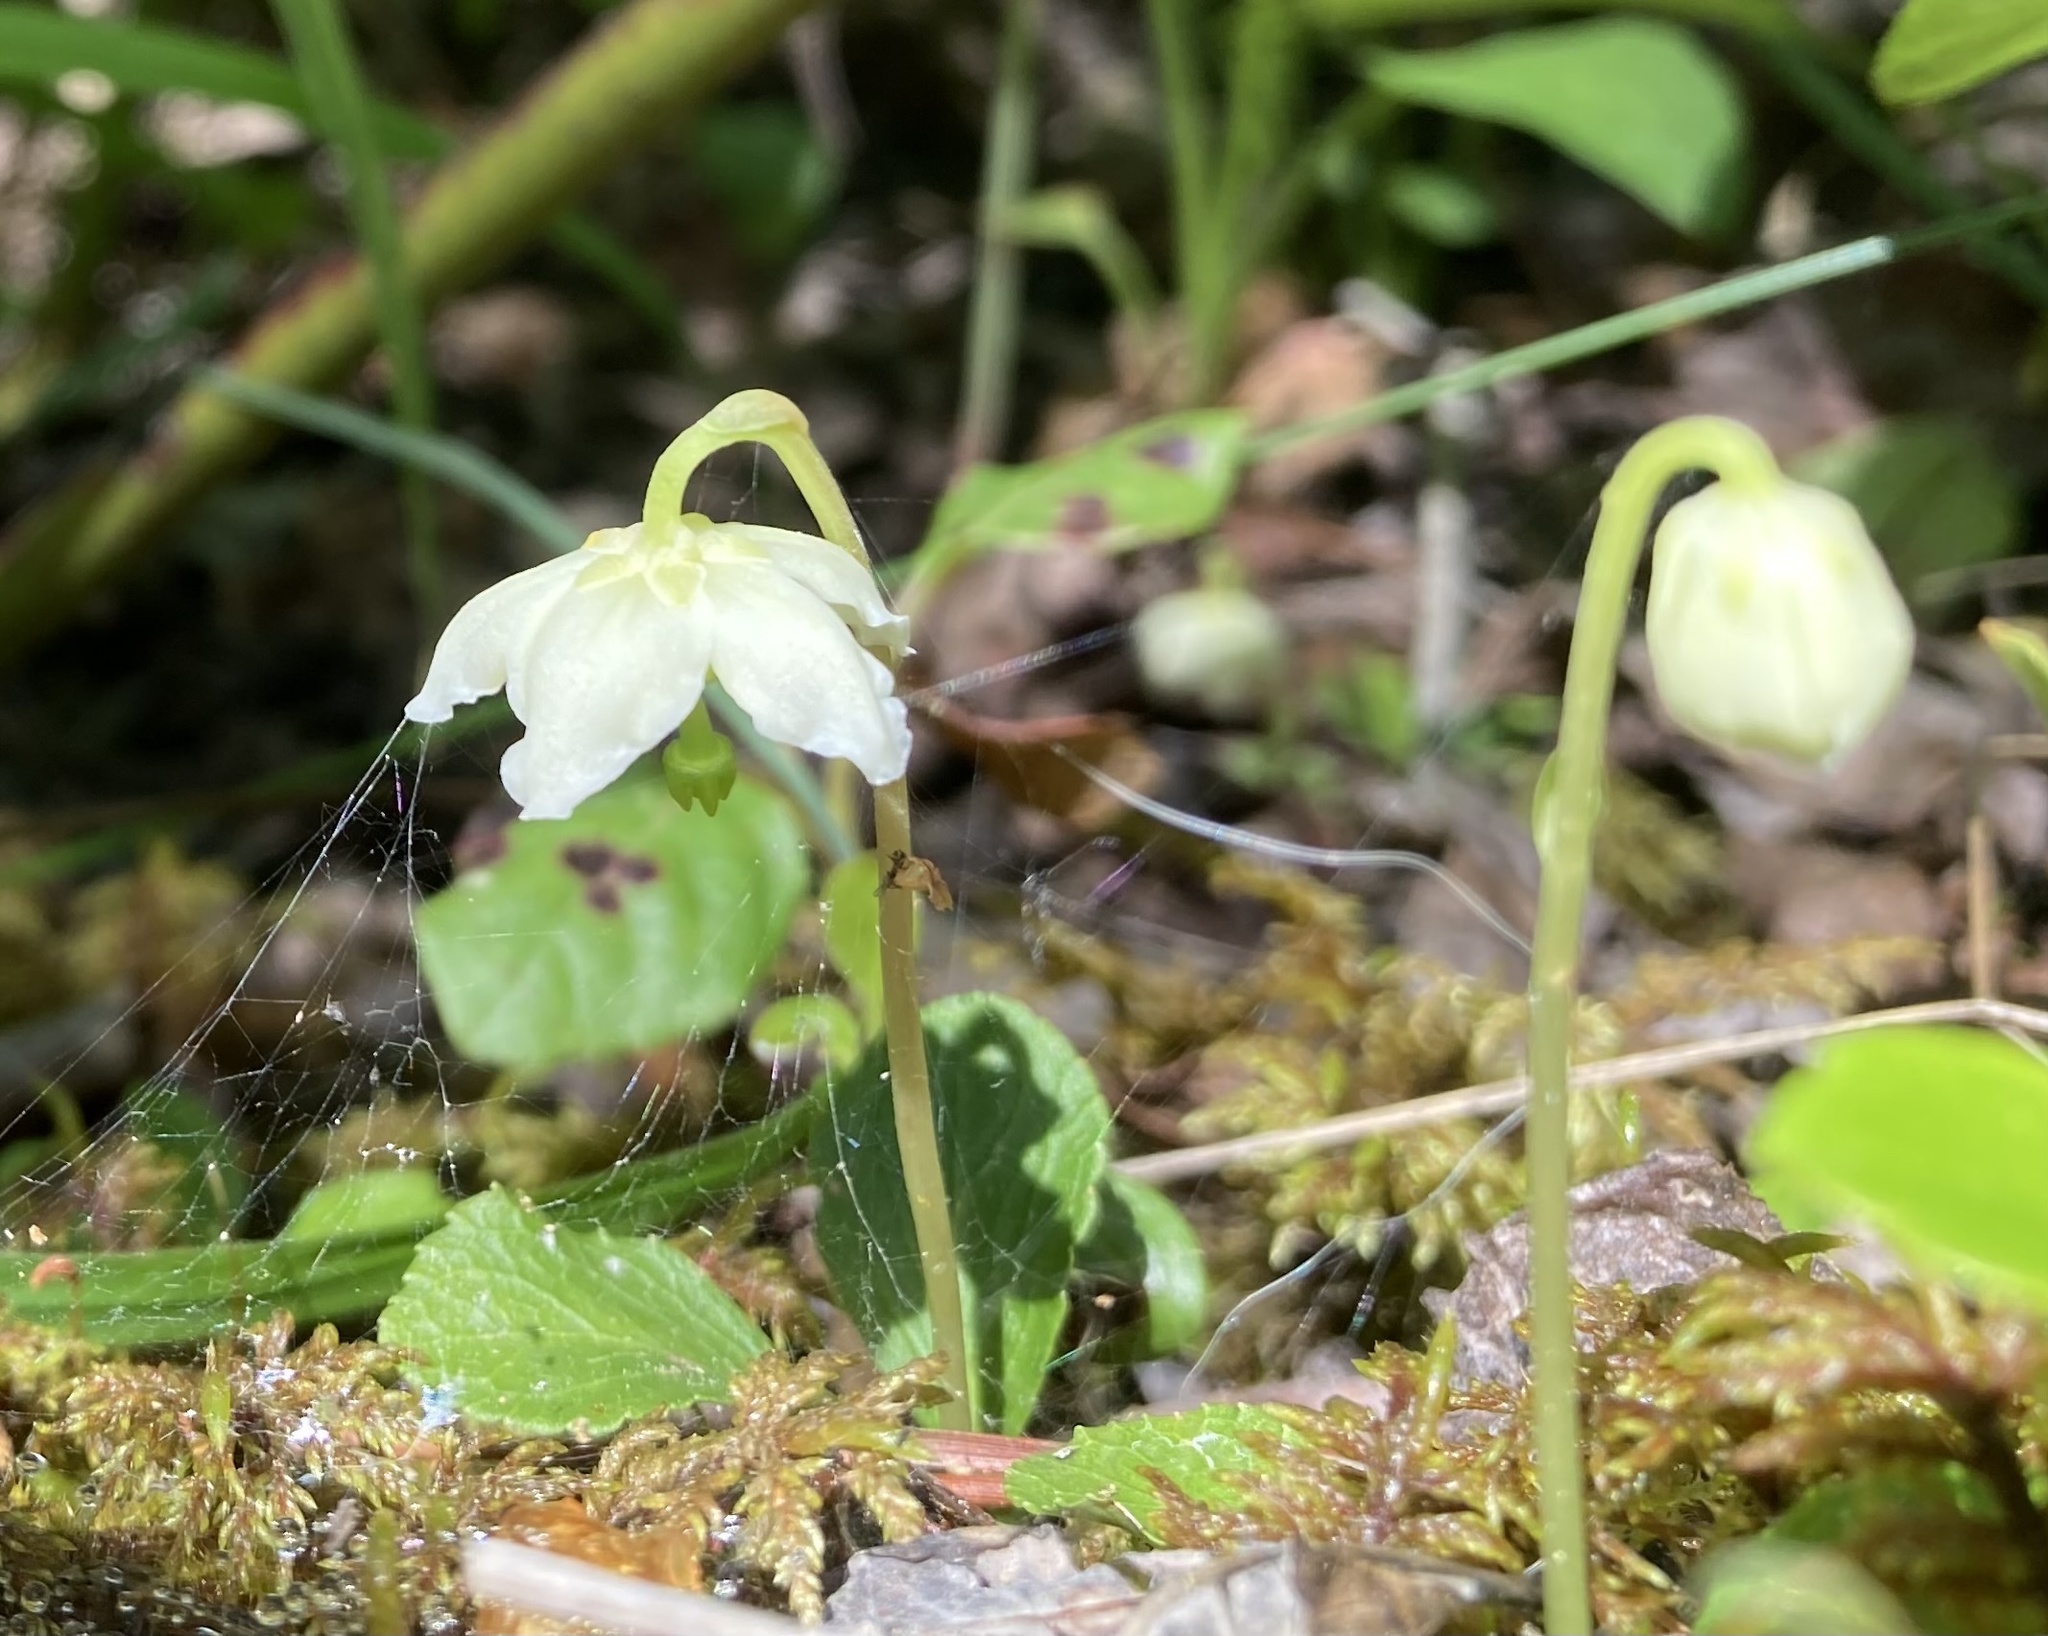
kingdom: Plantae
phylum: Tracheophyta
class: Magnoliopsida
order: Ericales
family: Ericaceae
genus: Moneses
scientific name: Moneses uniflora
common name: One-flowered wintergreen
